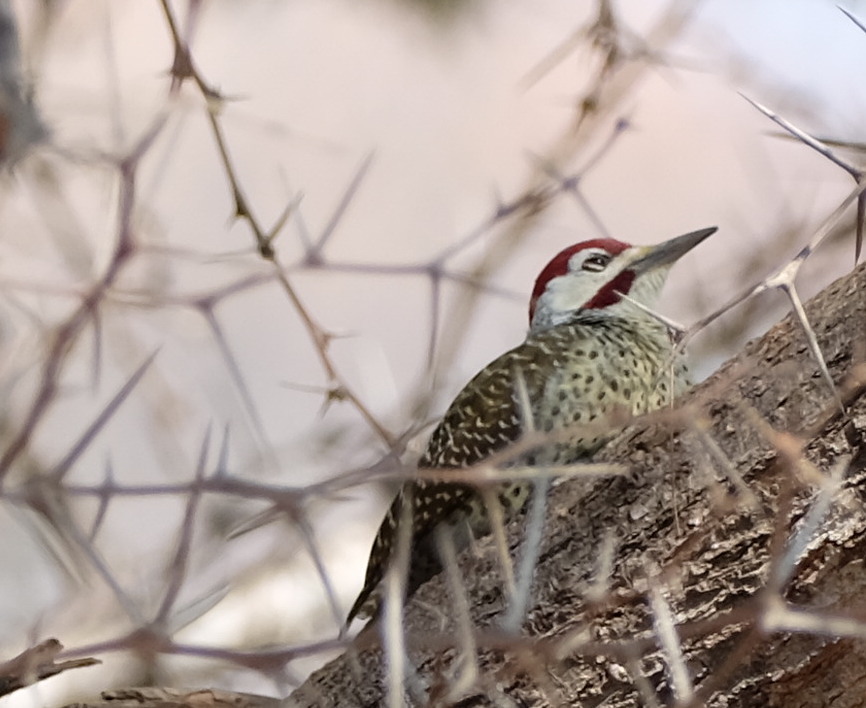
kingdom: Animalia
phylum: Chordata
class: Aves
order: Piciformes
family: Picidae
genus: Campethera
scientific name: Campethera bennettii
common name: Bennett's woodpecker
